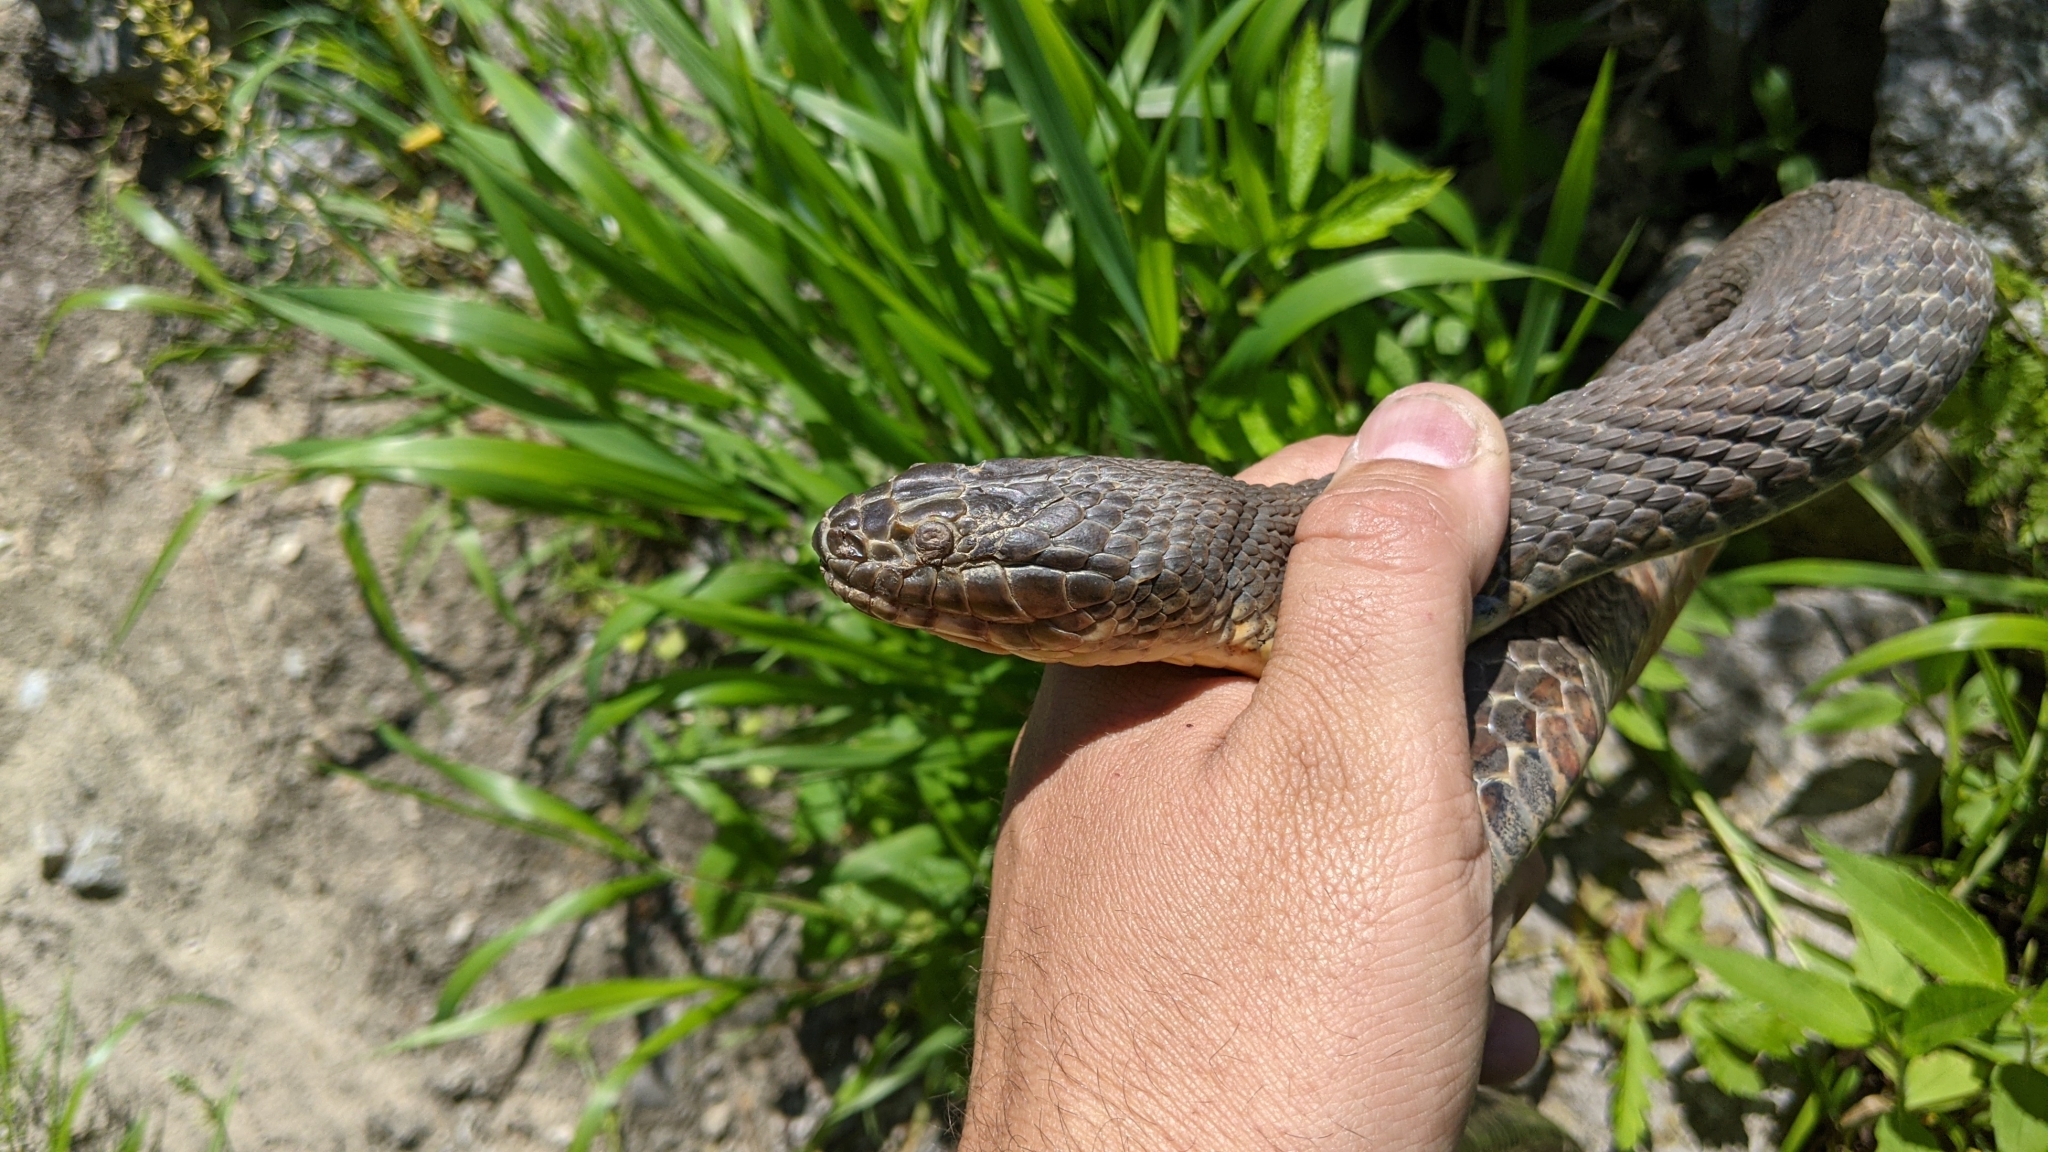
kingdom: Animalia
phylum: Chordata
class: Squamata
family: Colubridae
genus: Nerodia
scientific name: Nerodia sipedon
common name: Northern water snake
